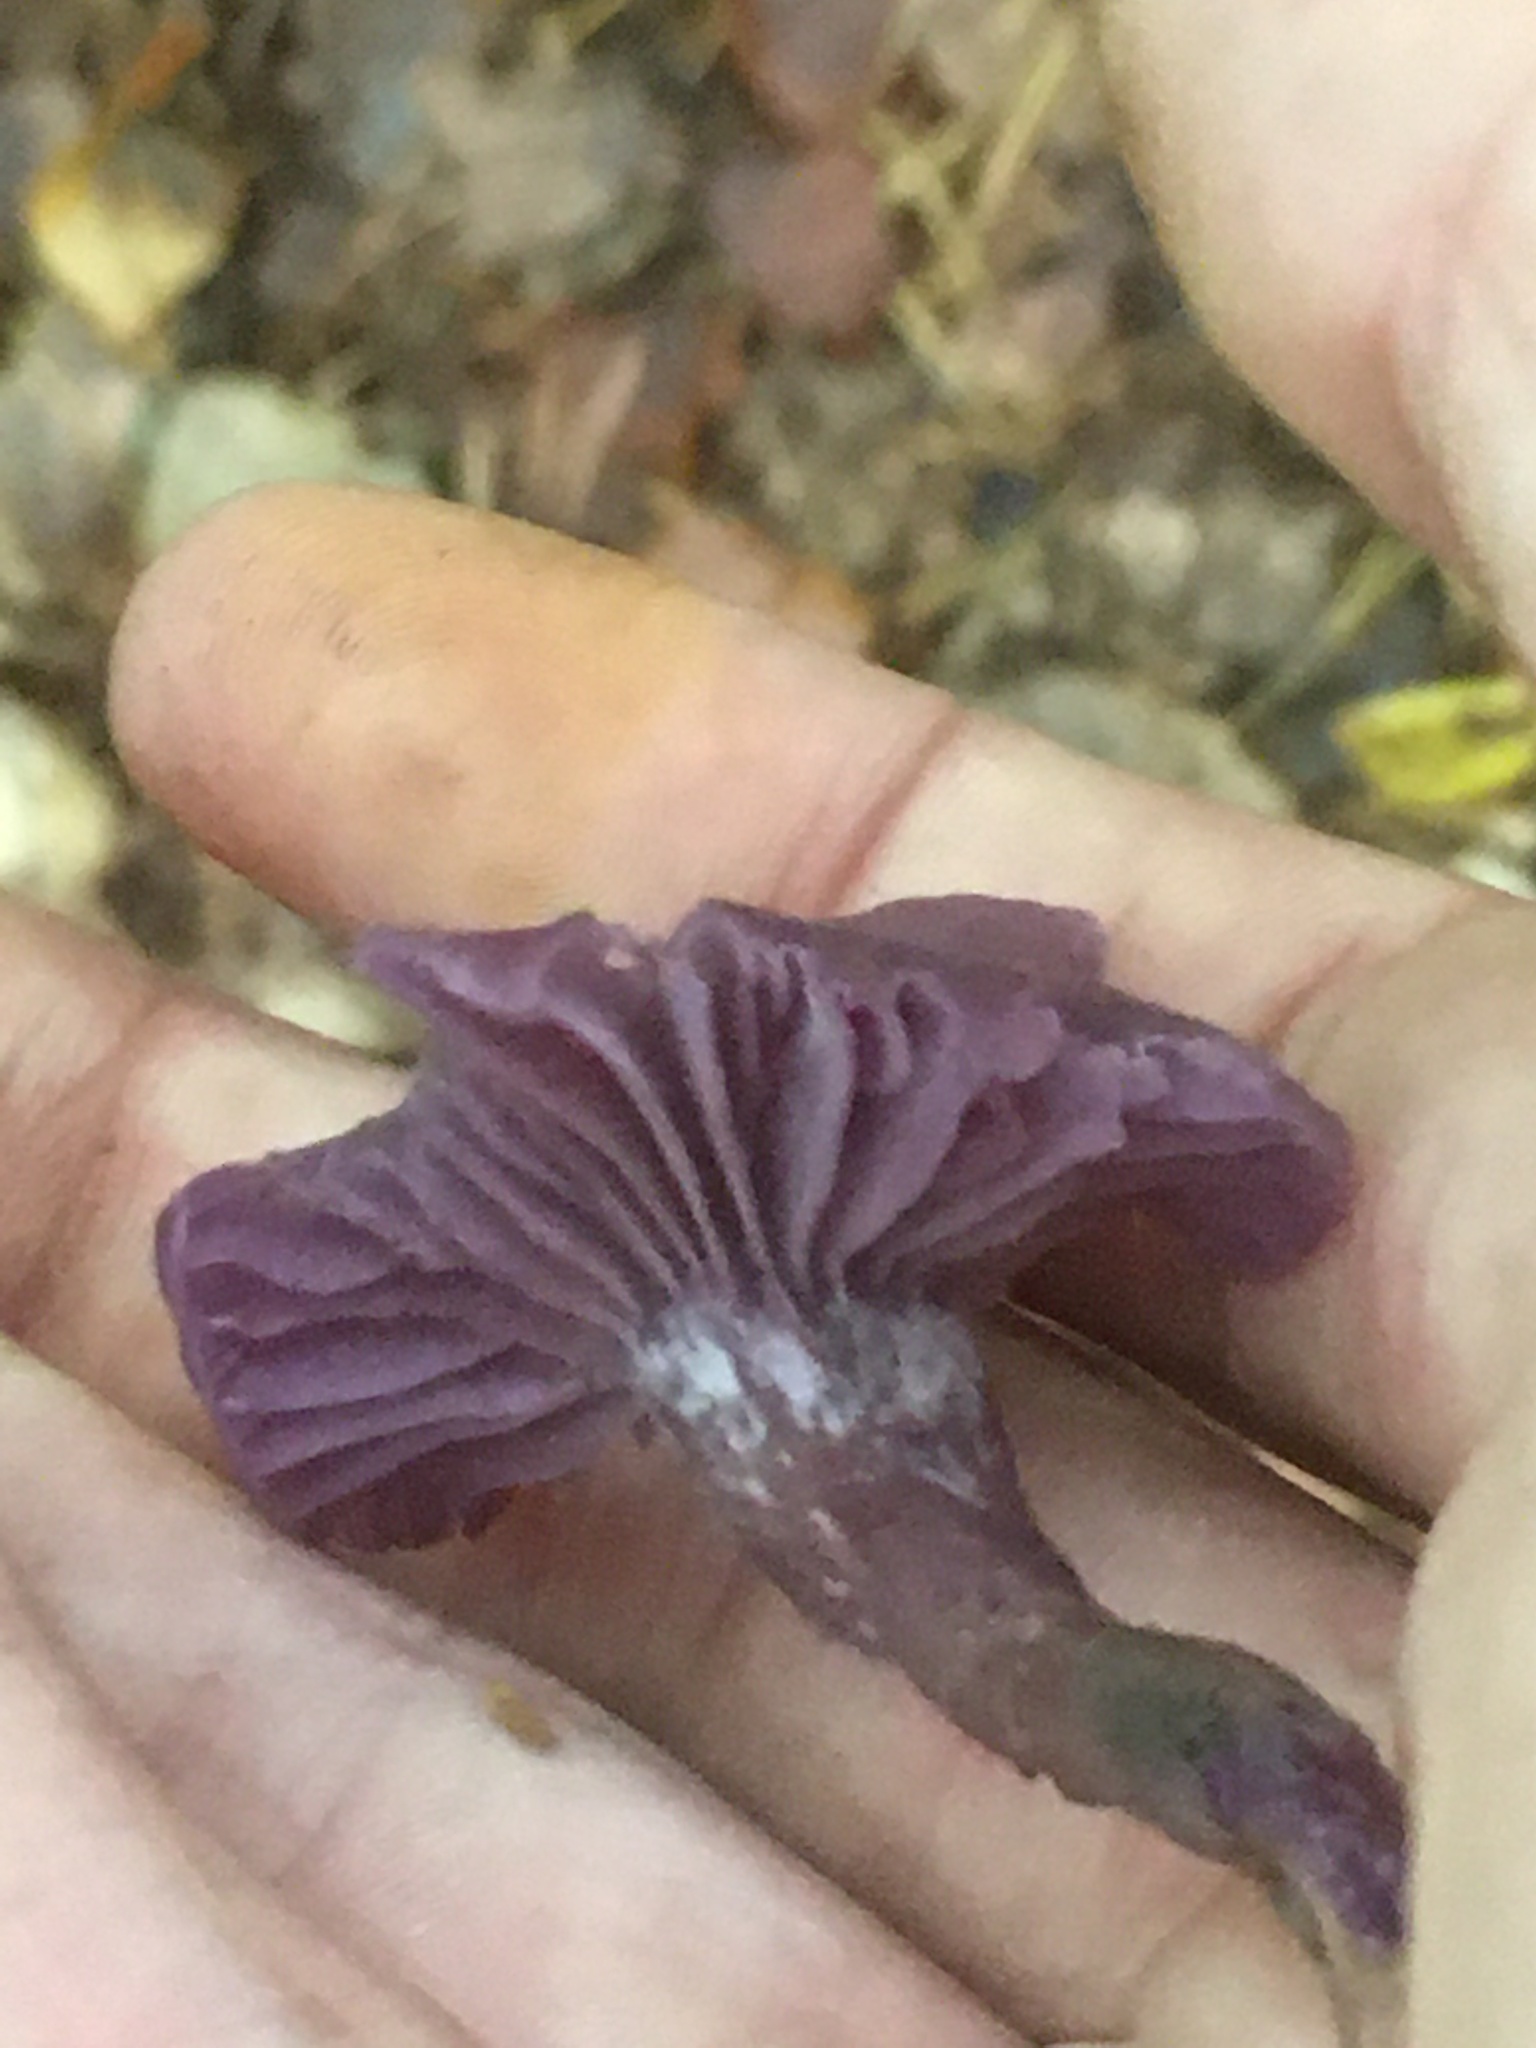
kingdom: Fungi
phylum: Basidiomycota
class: Agaricomycetes
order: Agaricales
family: Hydnangiaceae
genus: Laccaria
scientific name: Laccaria amethystina
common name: Amethyst deceiver
